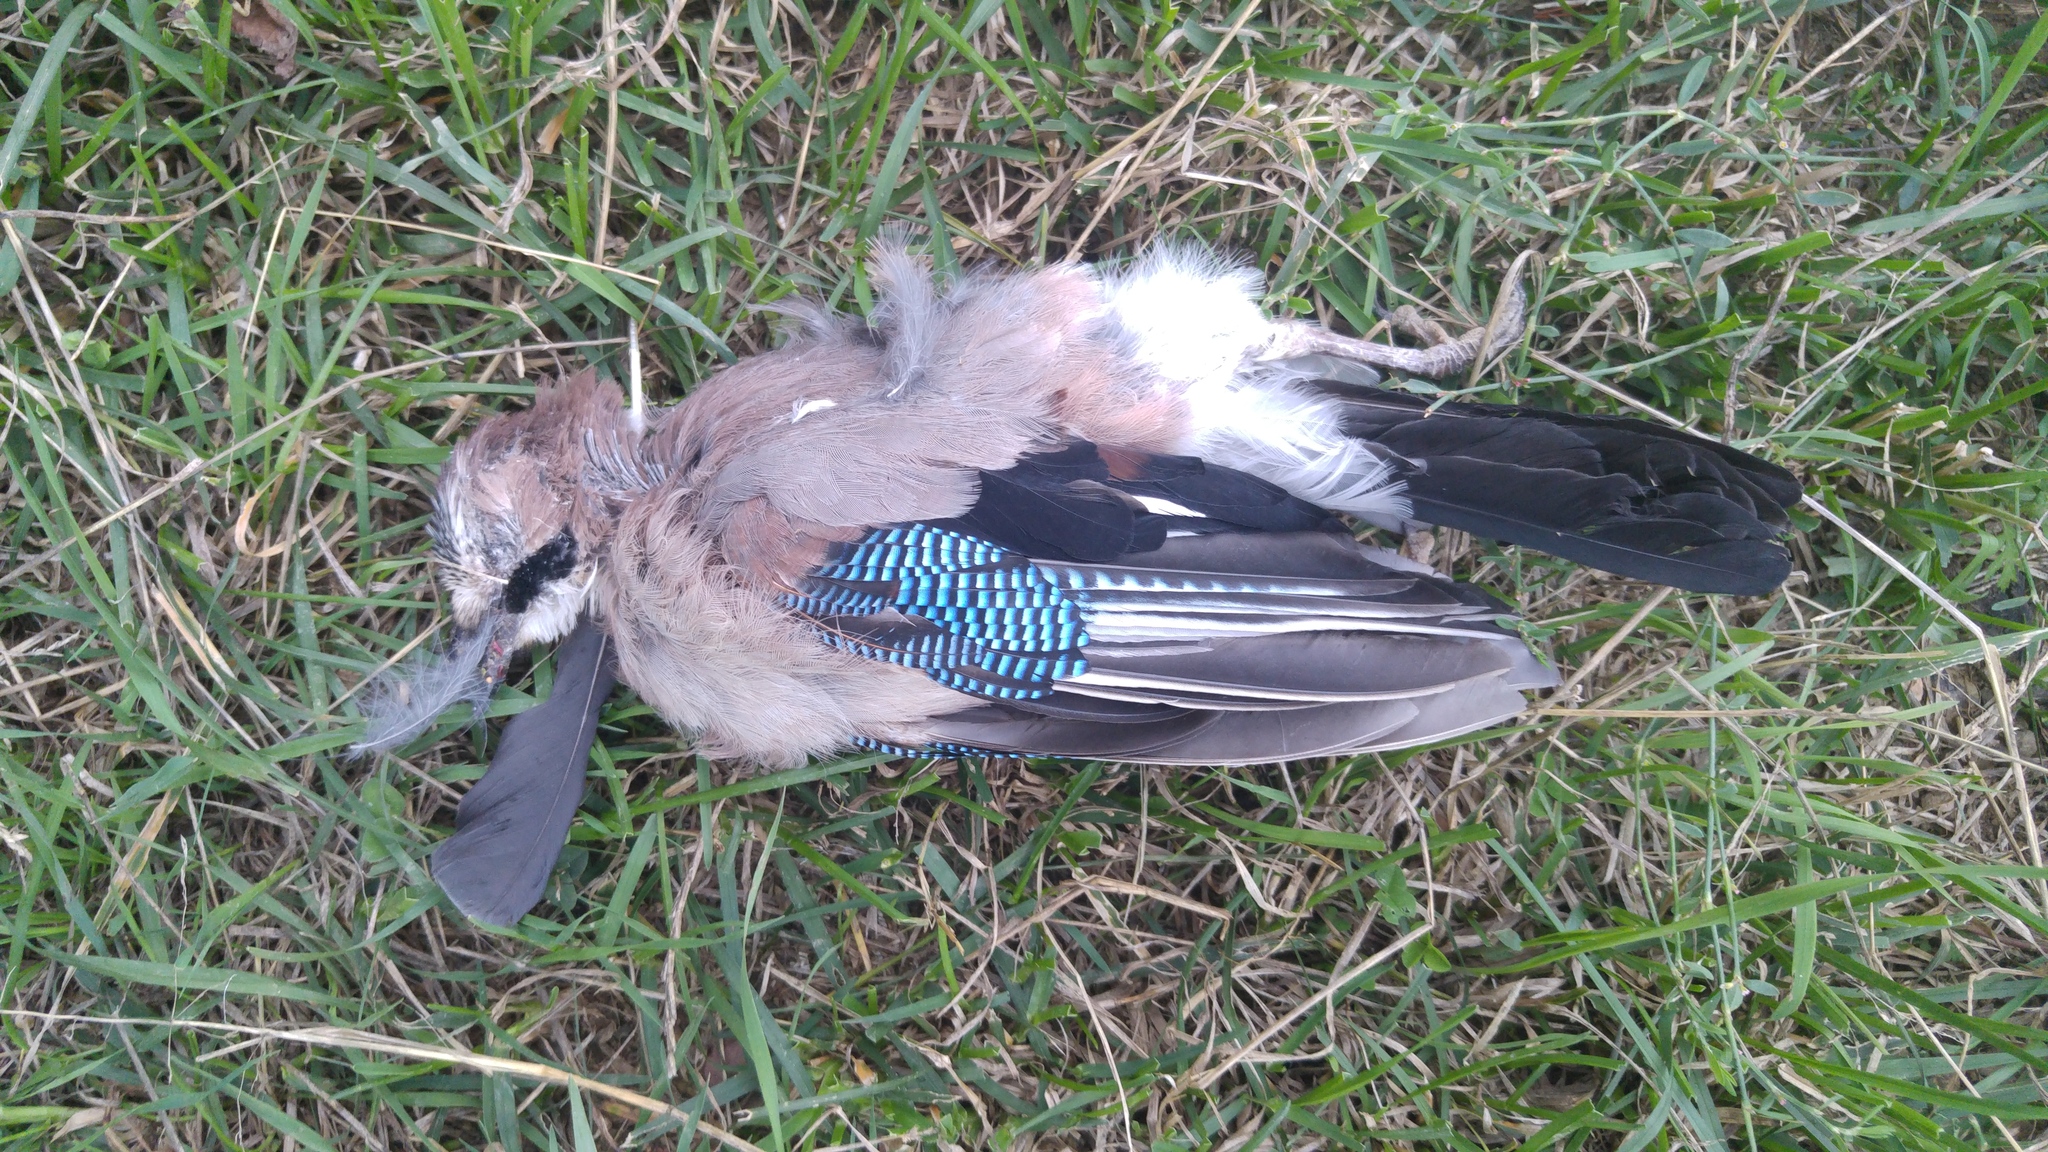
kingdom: Animalia
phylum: Chordata
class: Aves
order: Passeriformes
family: Corvidae
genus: Garrulus
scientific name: Garrulus glandarius
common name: Eurasian jay
